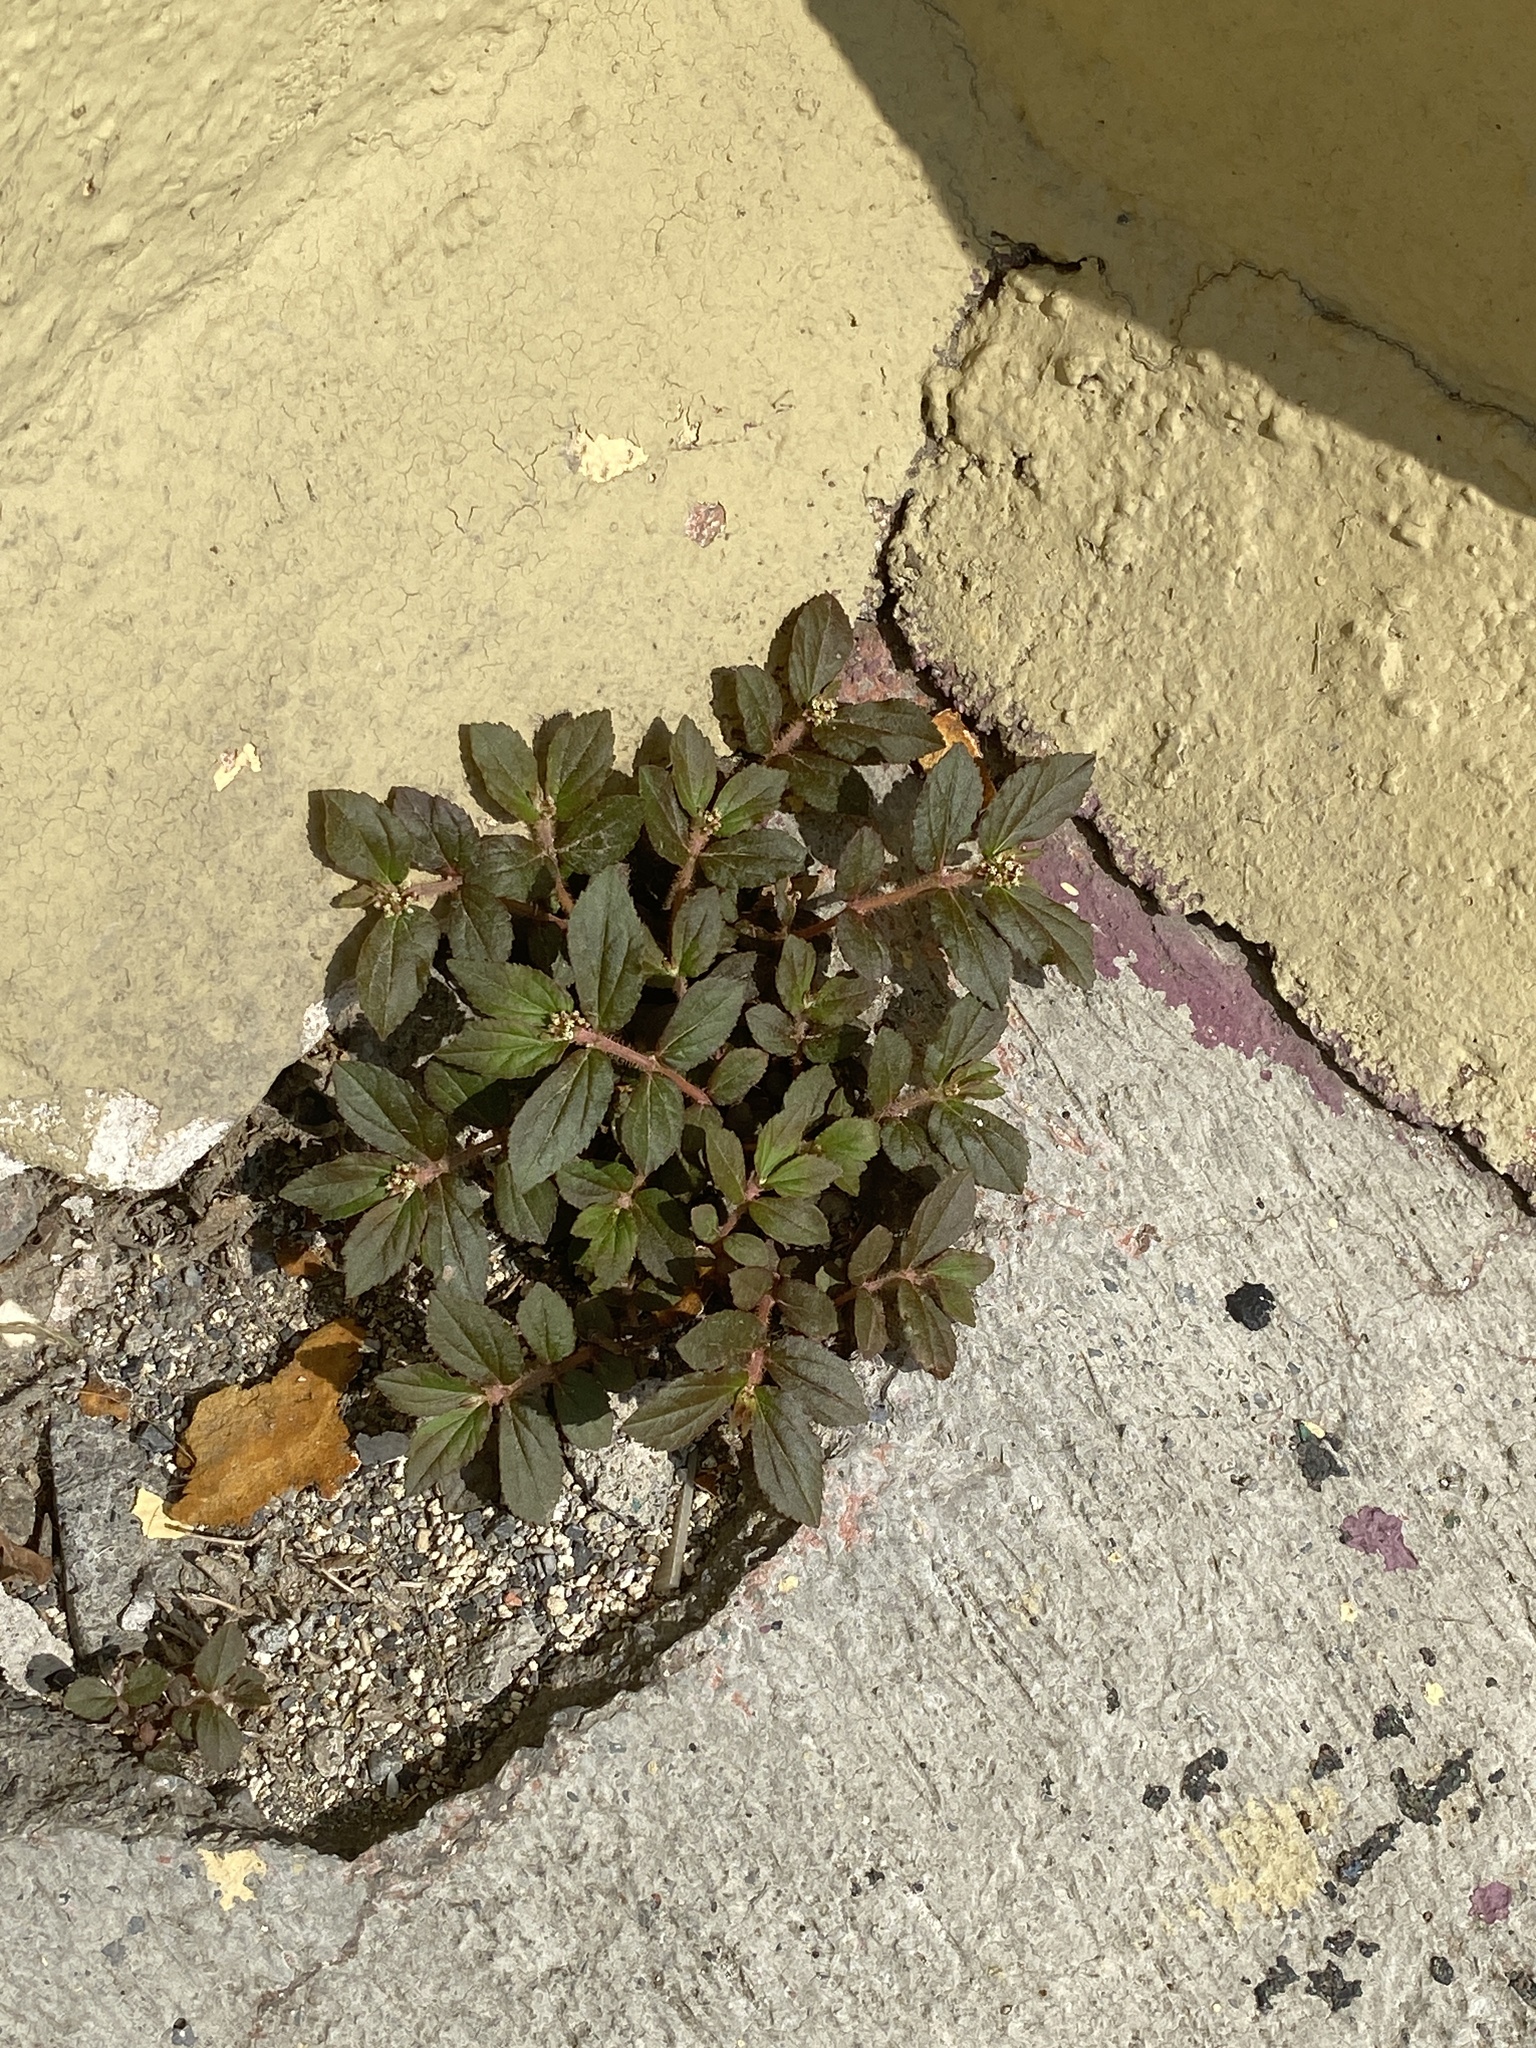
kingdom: Plantae
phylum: Tracheophyta
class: Magnoliopsida
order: Malpighiales
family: Euphorbiaceae
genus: Euphorbia
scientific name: Euphorbia hirta
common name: Pillpod sandmat
